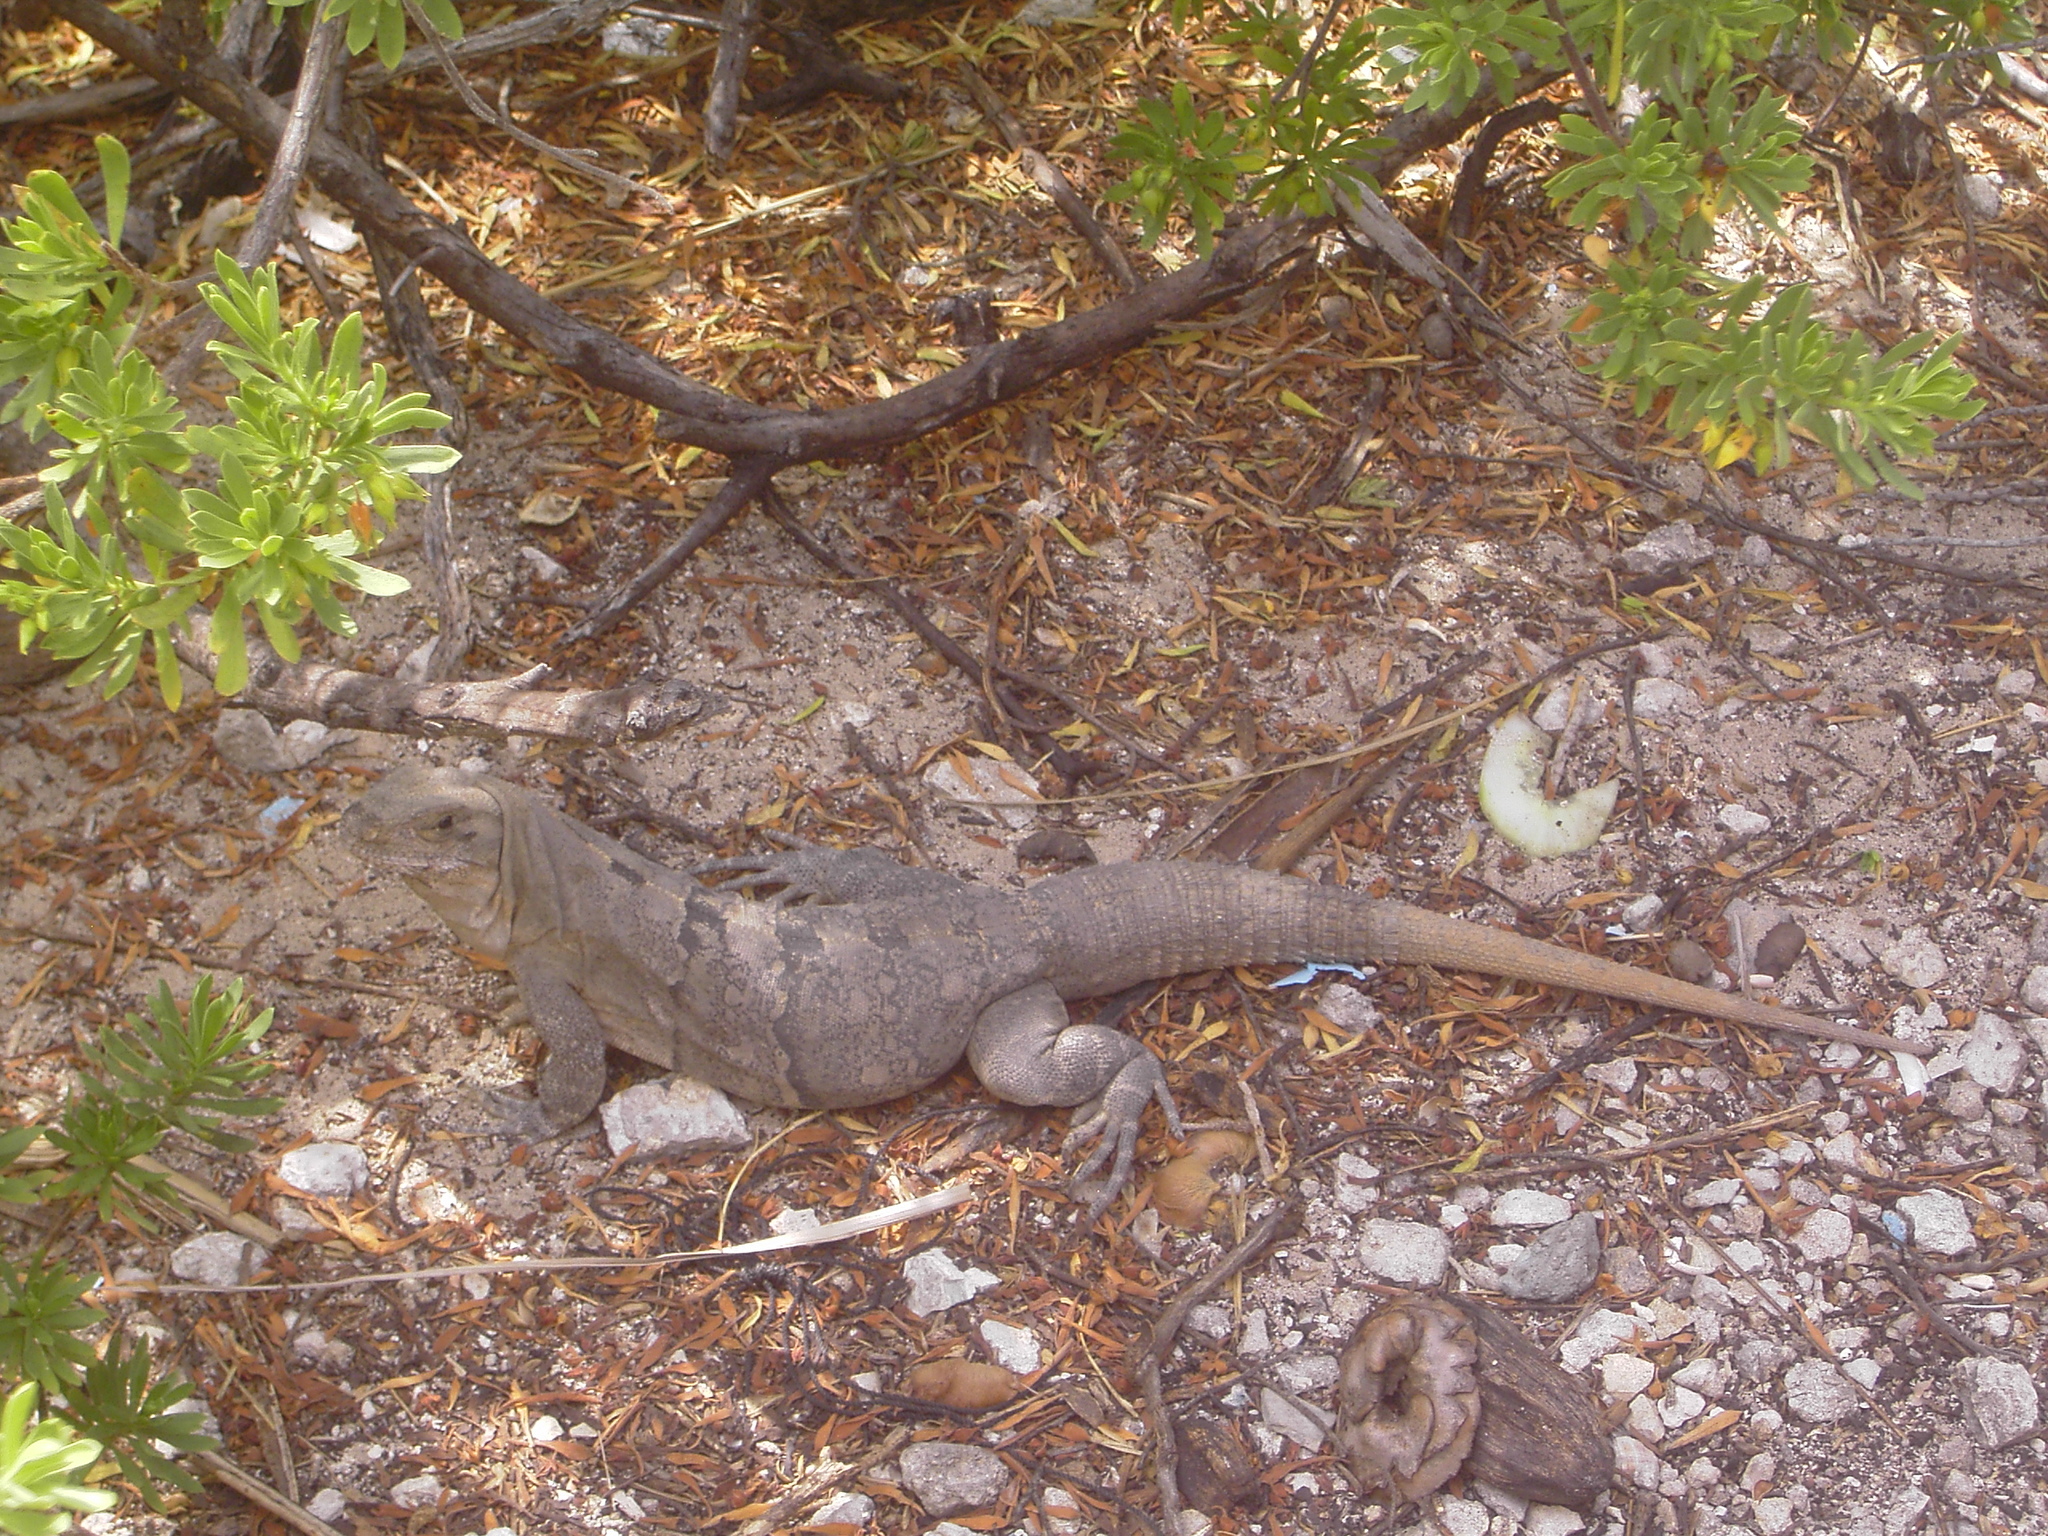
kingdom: Animalia
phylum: Chordata
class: Squamata
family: Iguanidae
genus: Ctenosaura
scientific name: Ctenosaura similis
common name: Black spiny-tailed iguana
